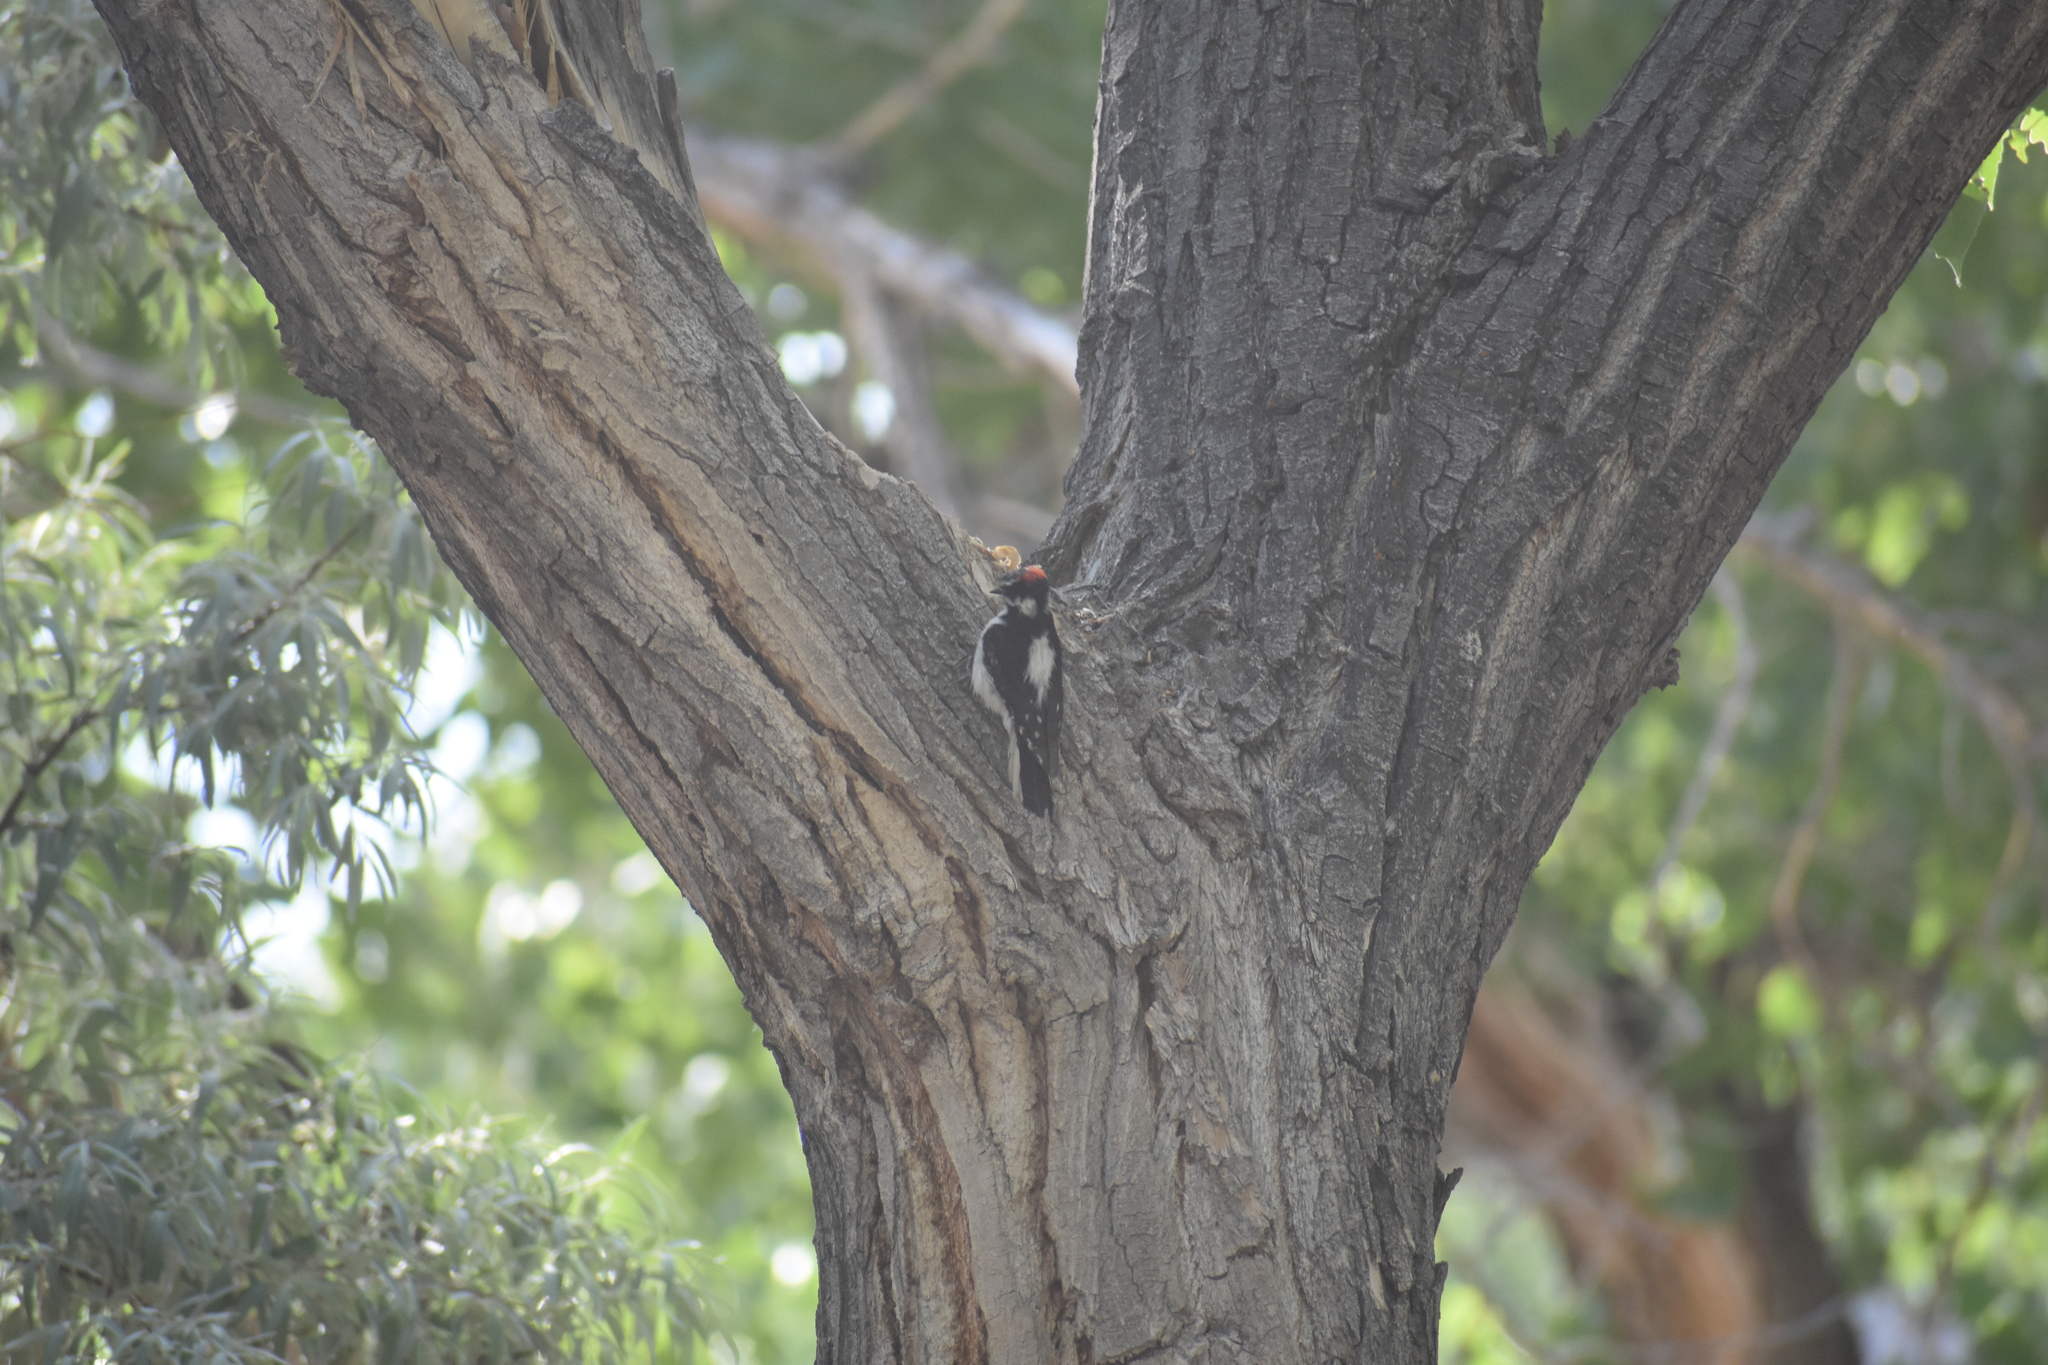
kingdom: Animalia
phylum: Chordata
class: Aves
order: Piciformes
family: Picidae
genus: Leuconotopicus
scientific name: Leuconotopicus villosus
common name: Hairy woodpecker
